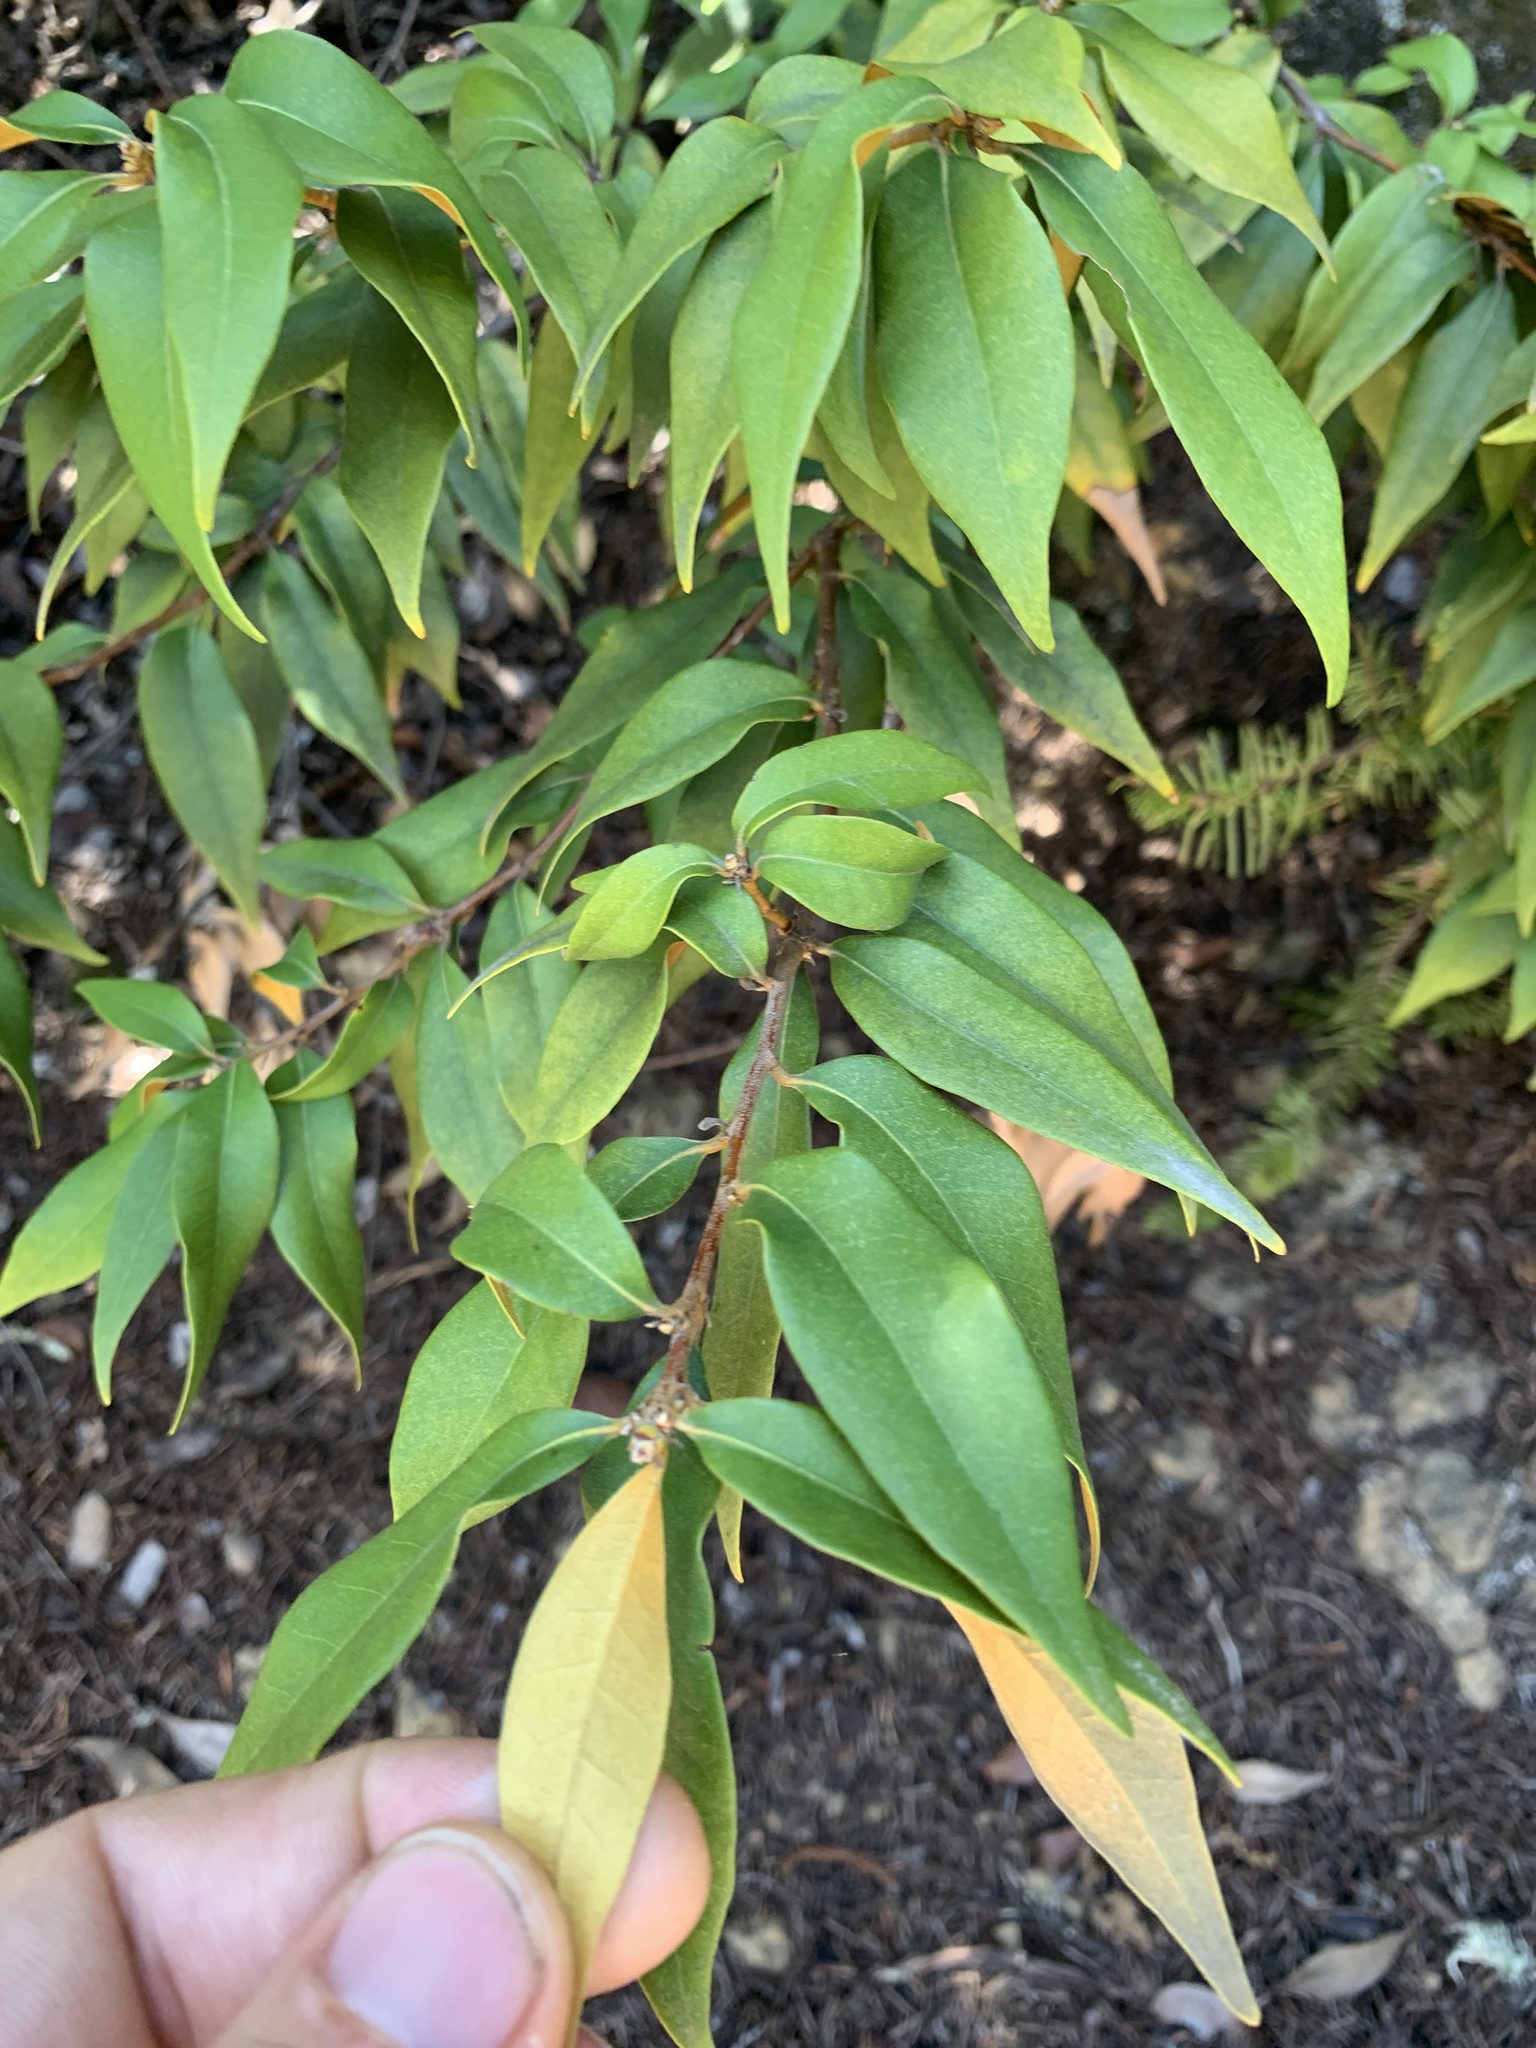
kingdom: Plantae
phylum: Tracheophyta
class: Magnoliopsida
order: Fagales
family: Fagaceae
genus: Chrysolepis
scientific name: Chrysolepis chrysophylla
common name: Giant chinquapin
